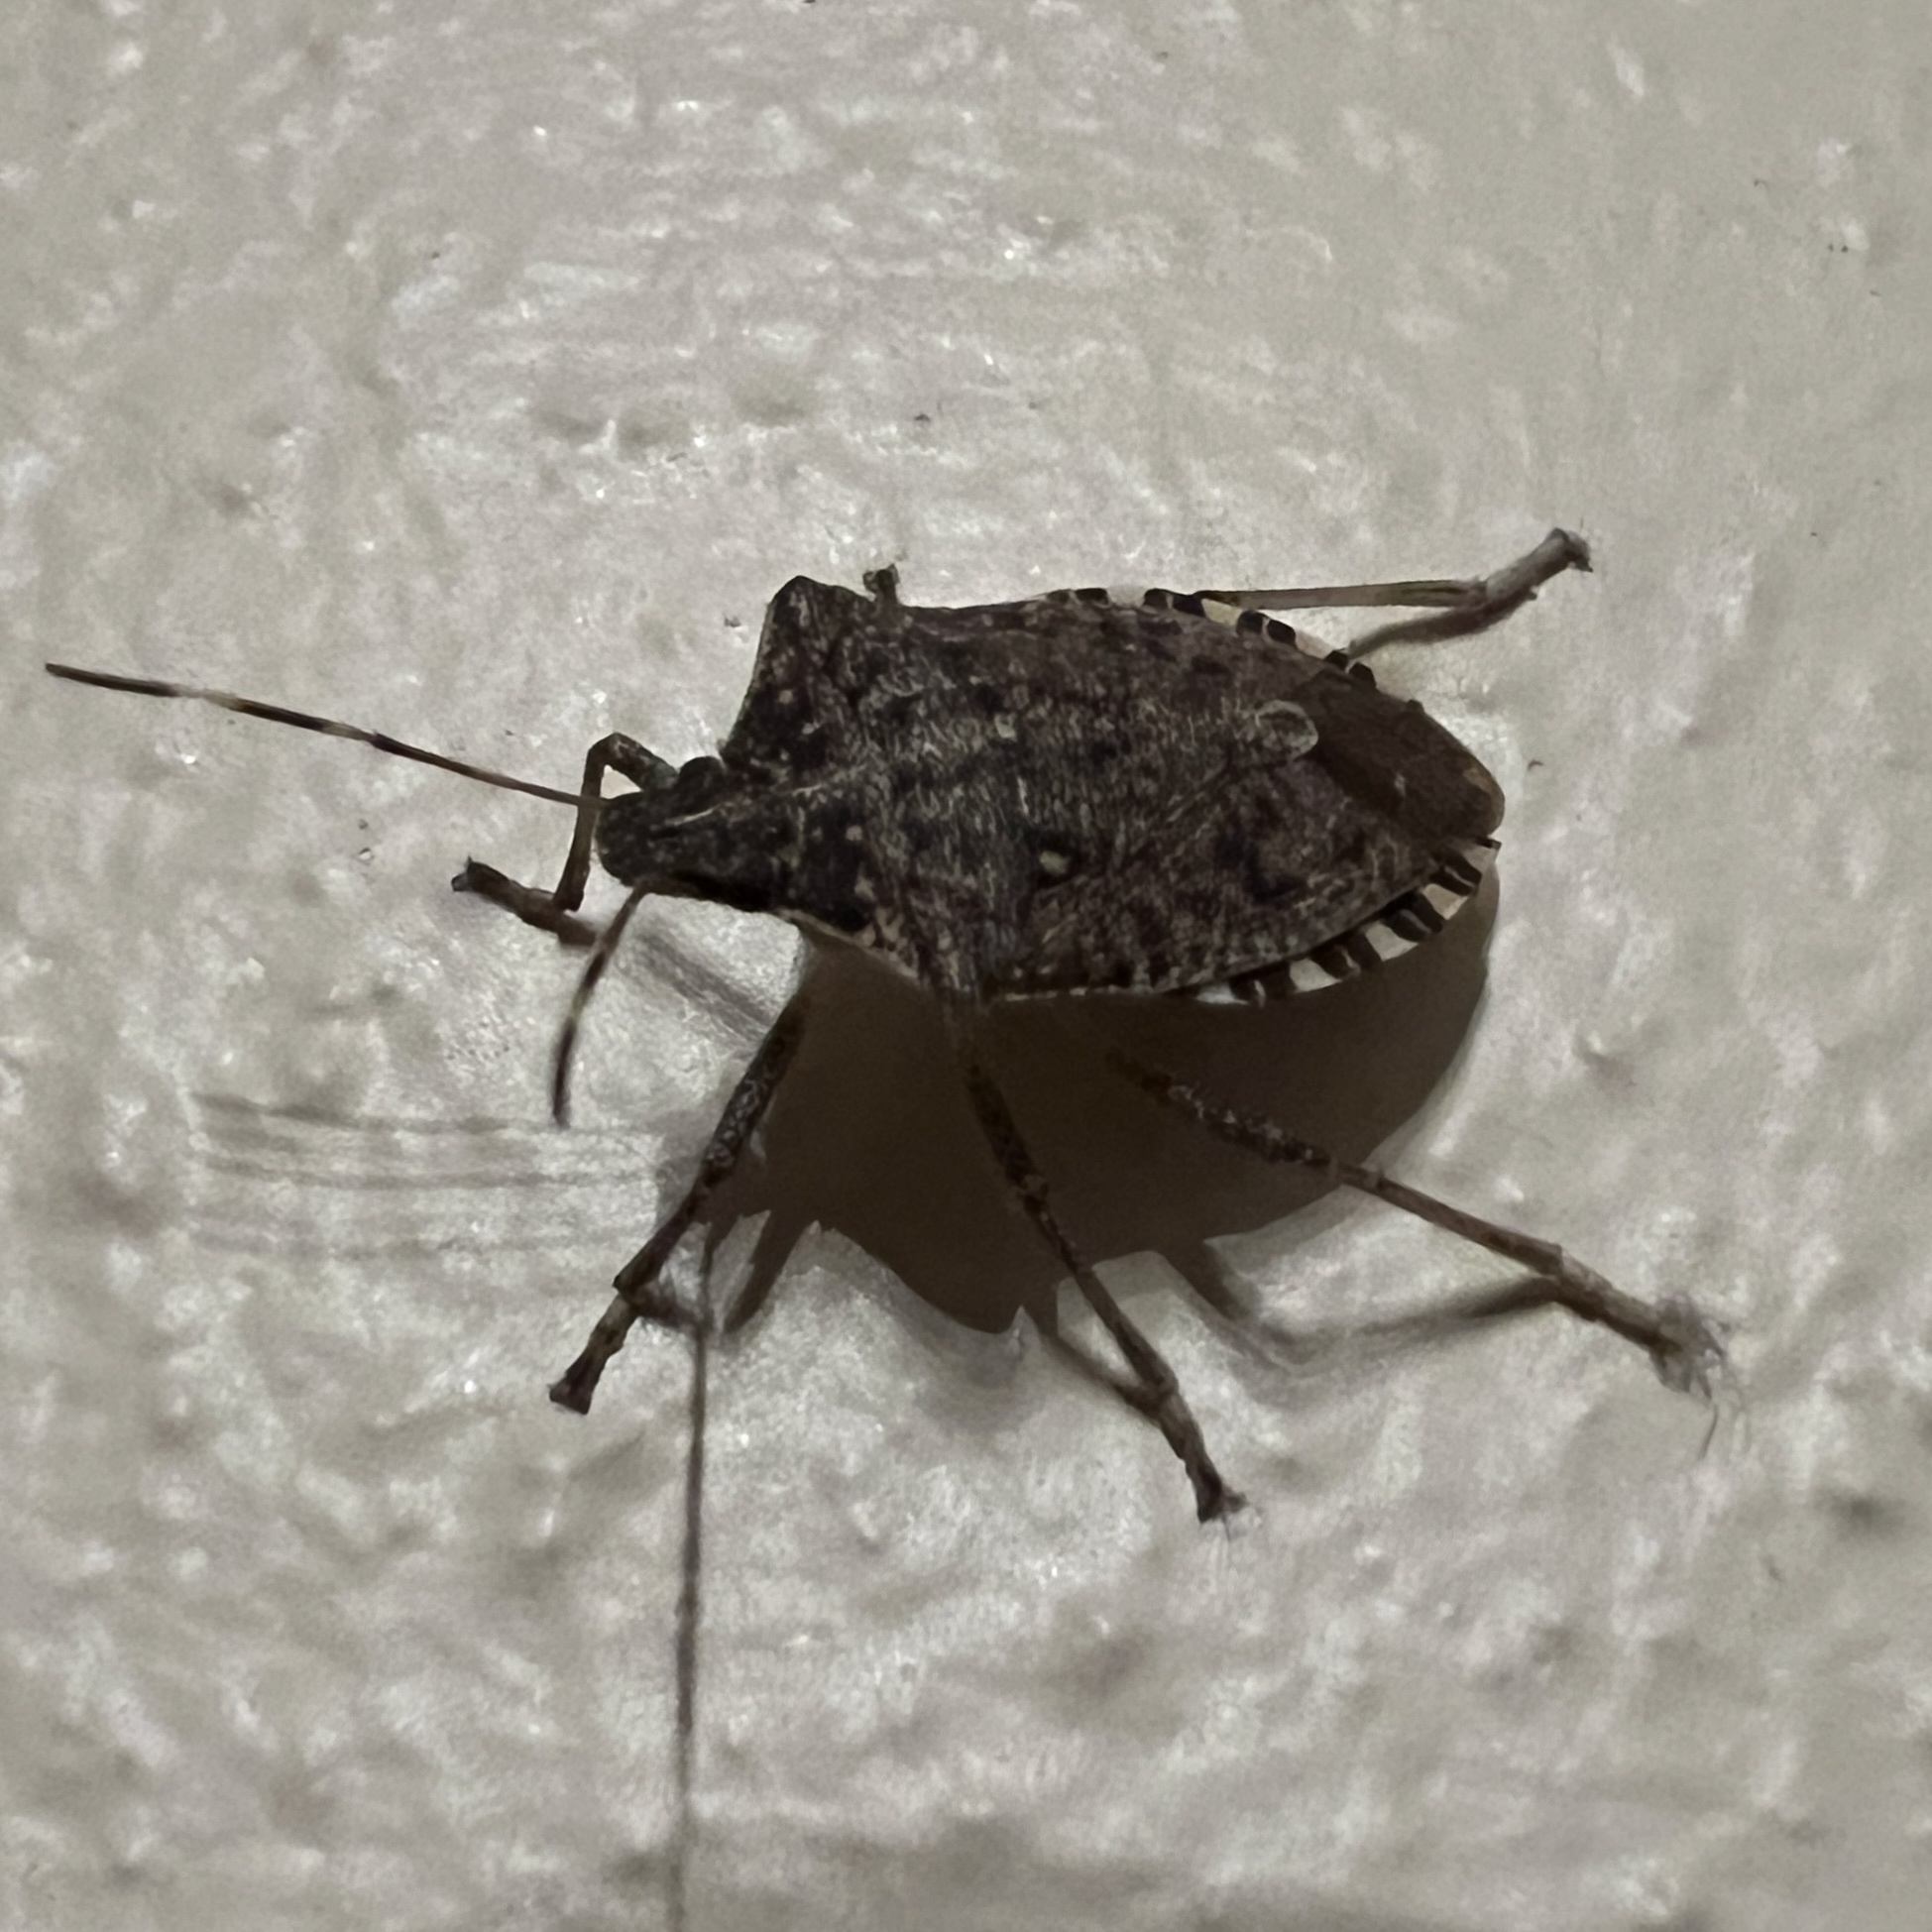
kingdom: Animalia
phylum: Arthropoda
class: Insecta
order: Hemiptera
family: Pentatomidae
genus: Halyomorpha
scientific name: Halyomorpha halys
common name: Brown marmorated stink bug
